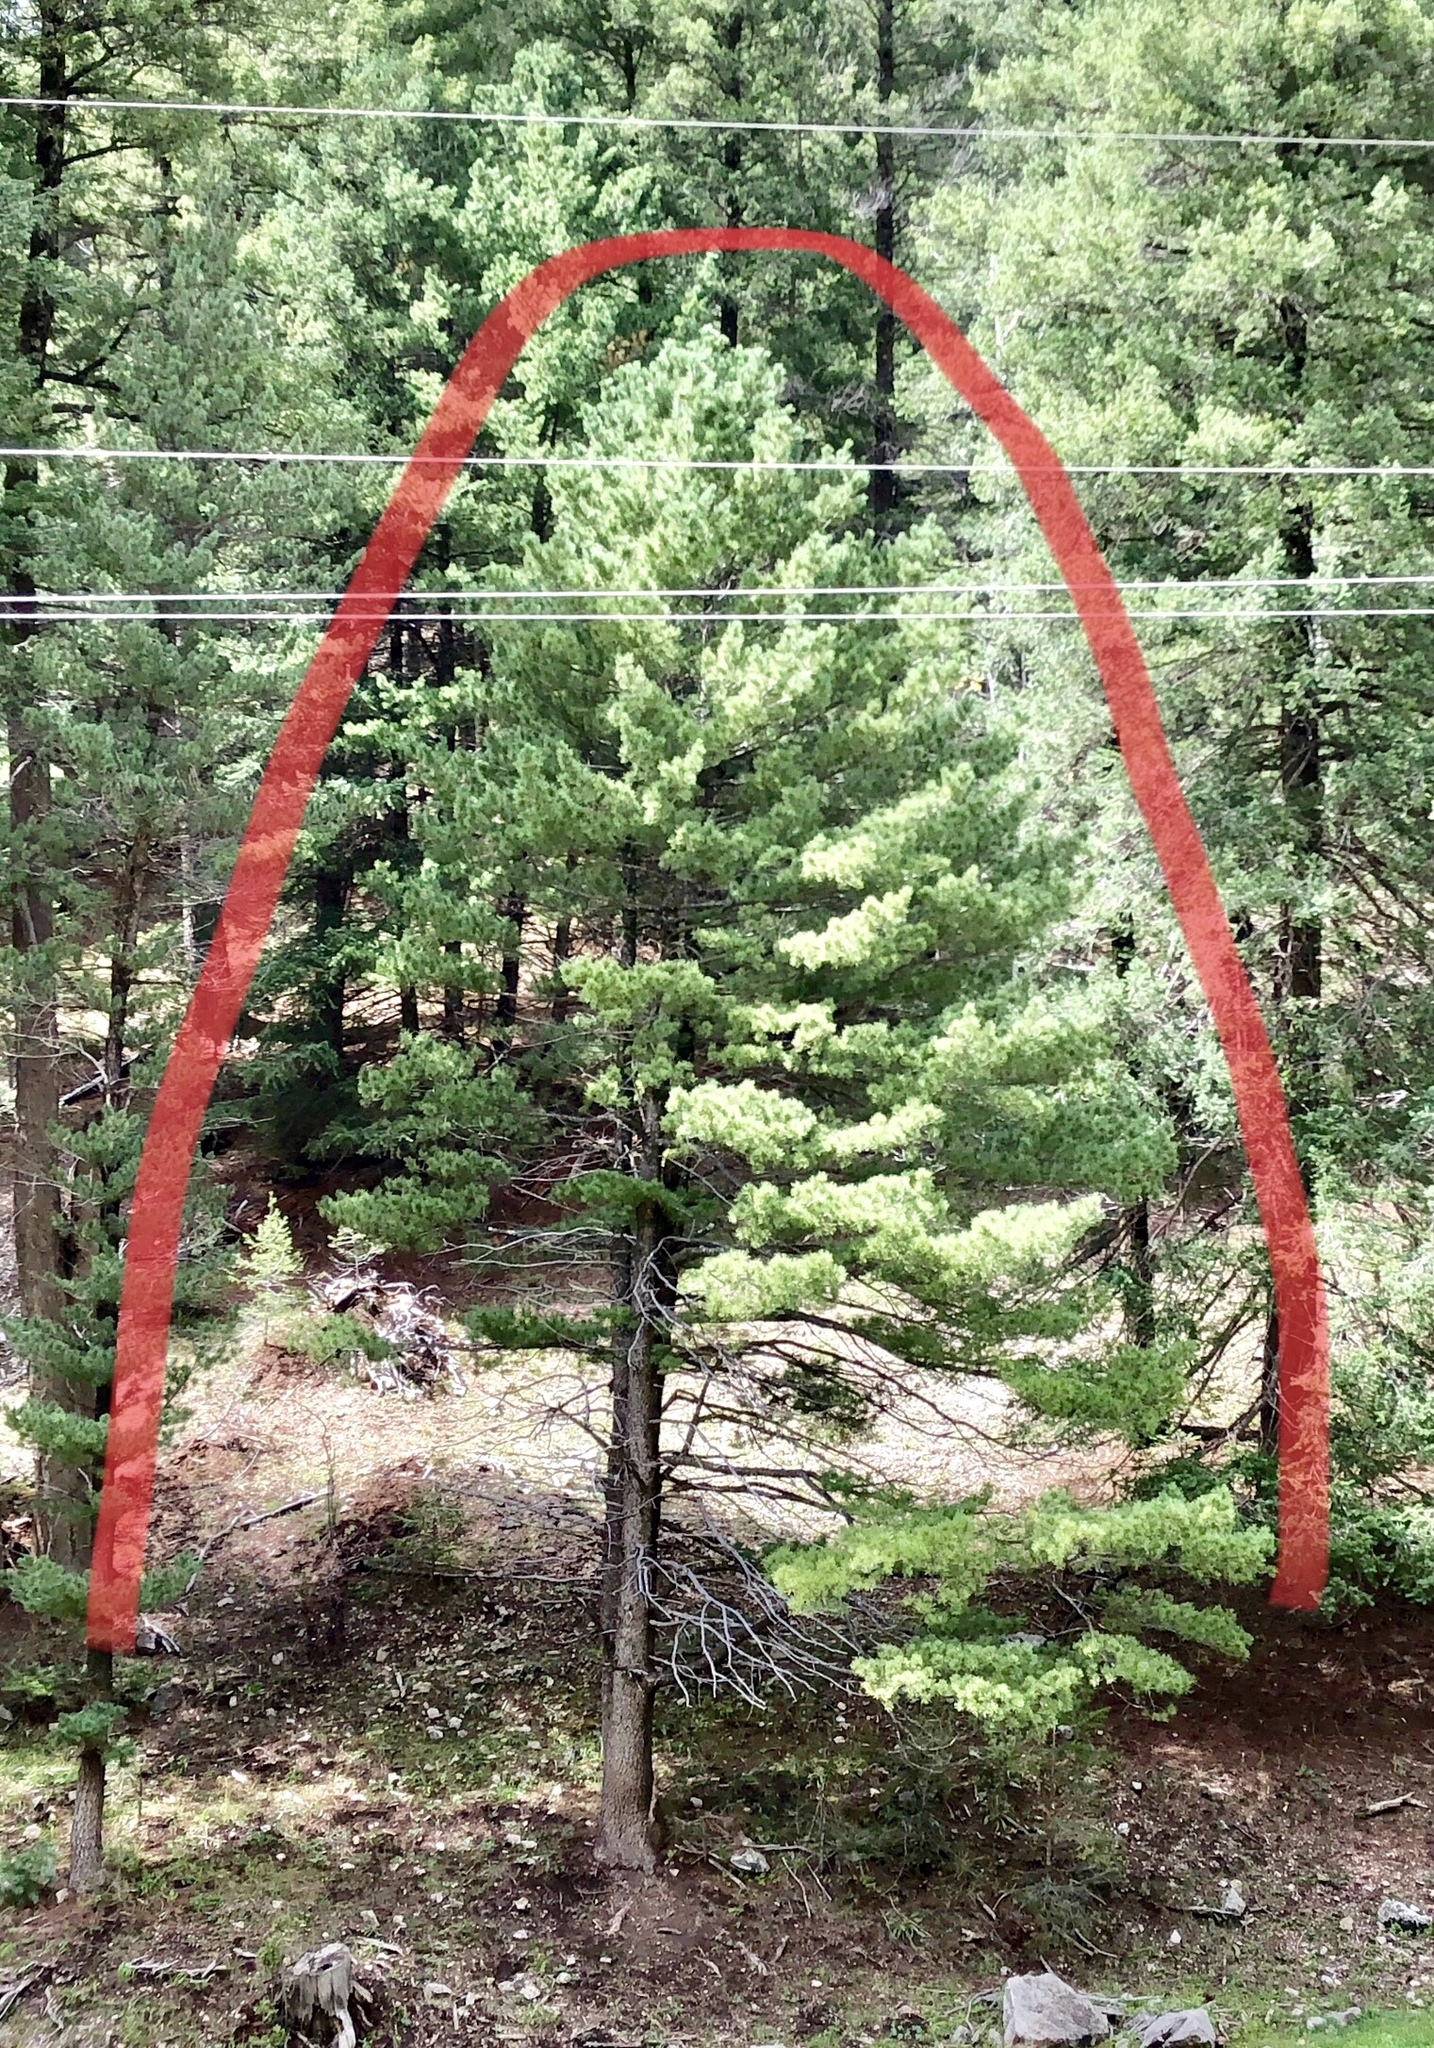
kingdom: Plantae
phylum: Tracheophyta
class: Pinopsida
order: Pinales
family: Pinaceae
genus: Pinus
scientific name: Pinus ponderosa
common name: Western yellow-pine
